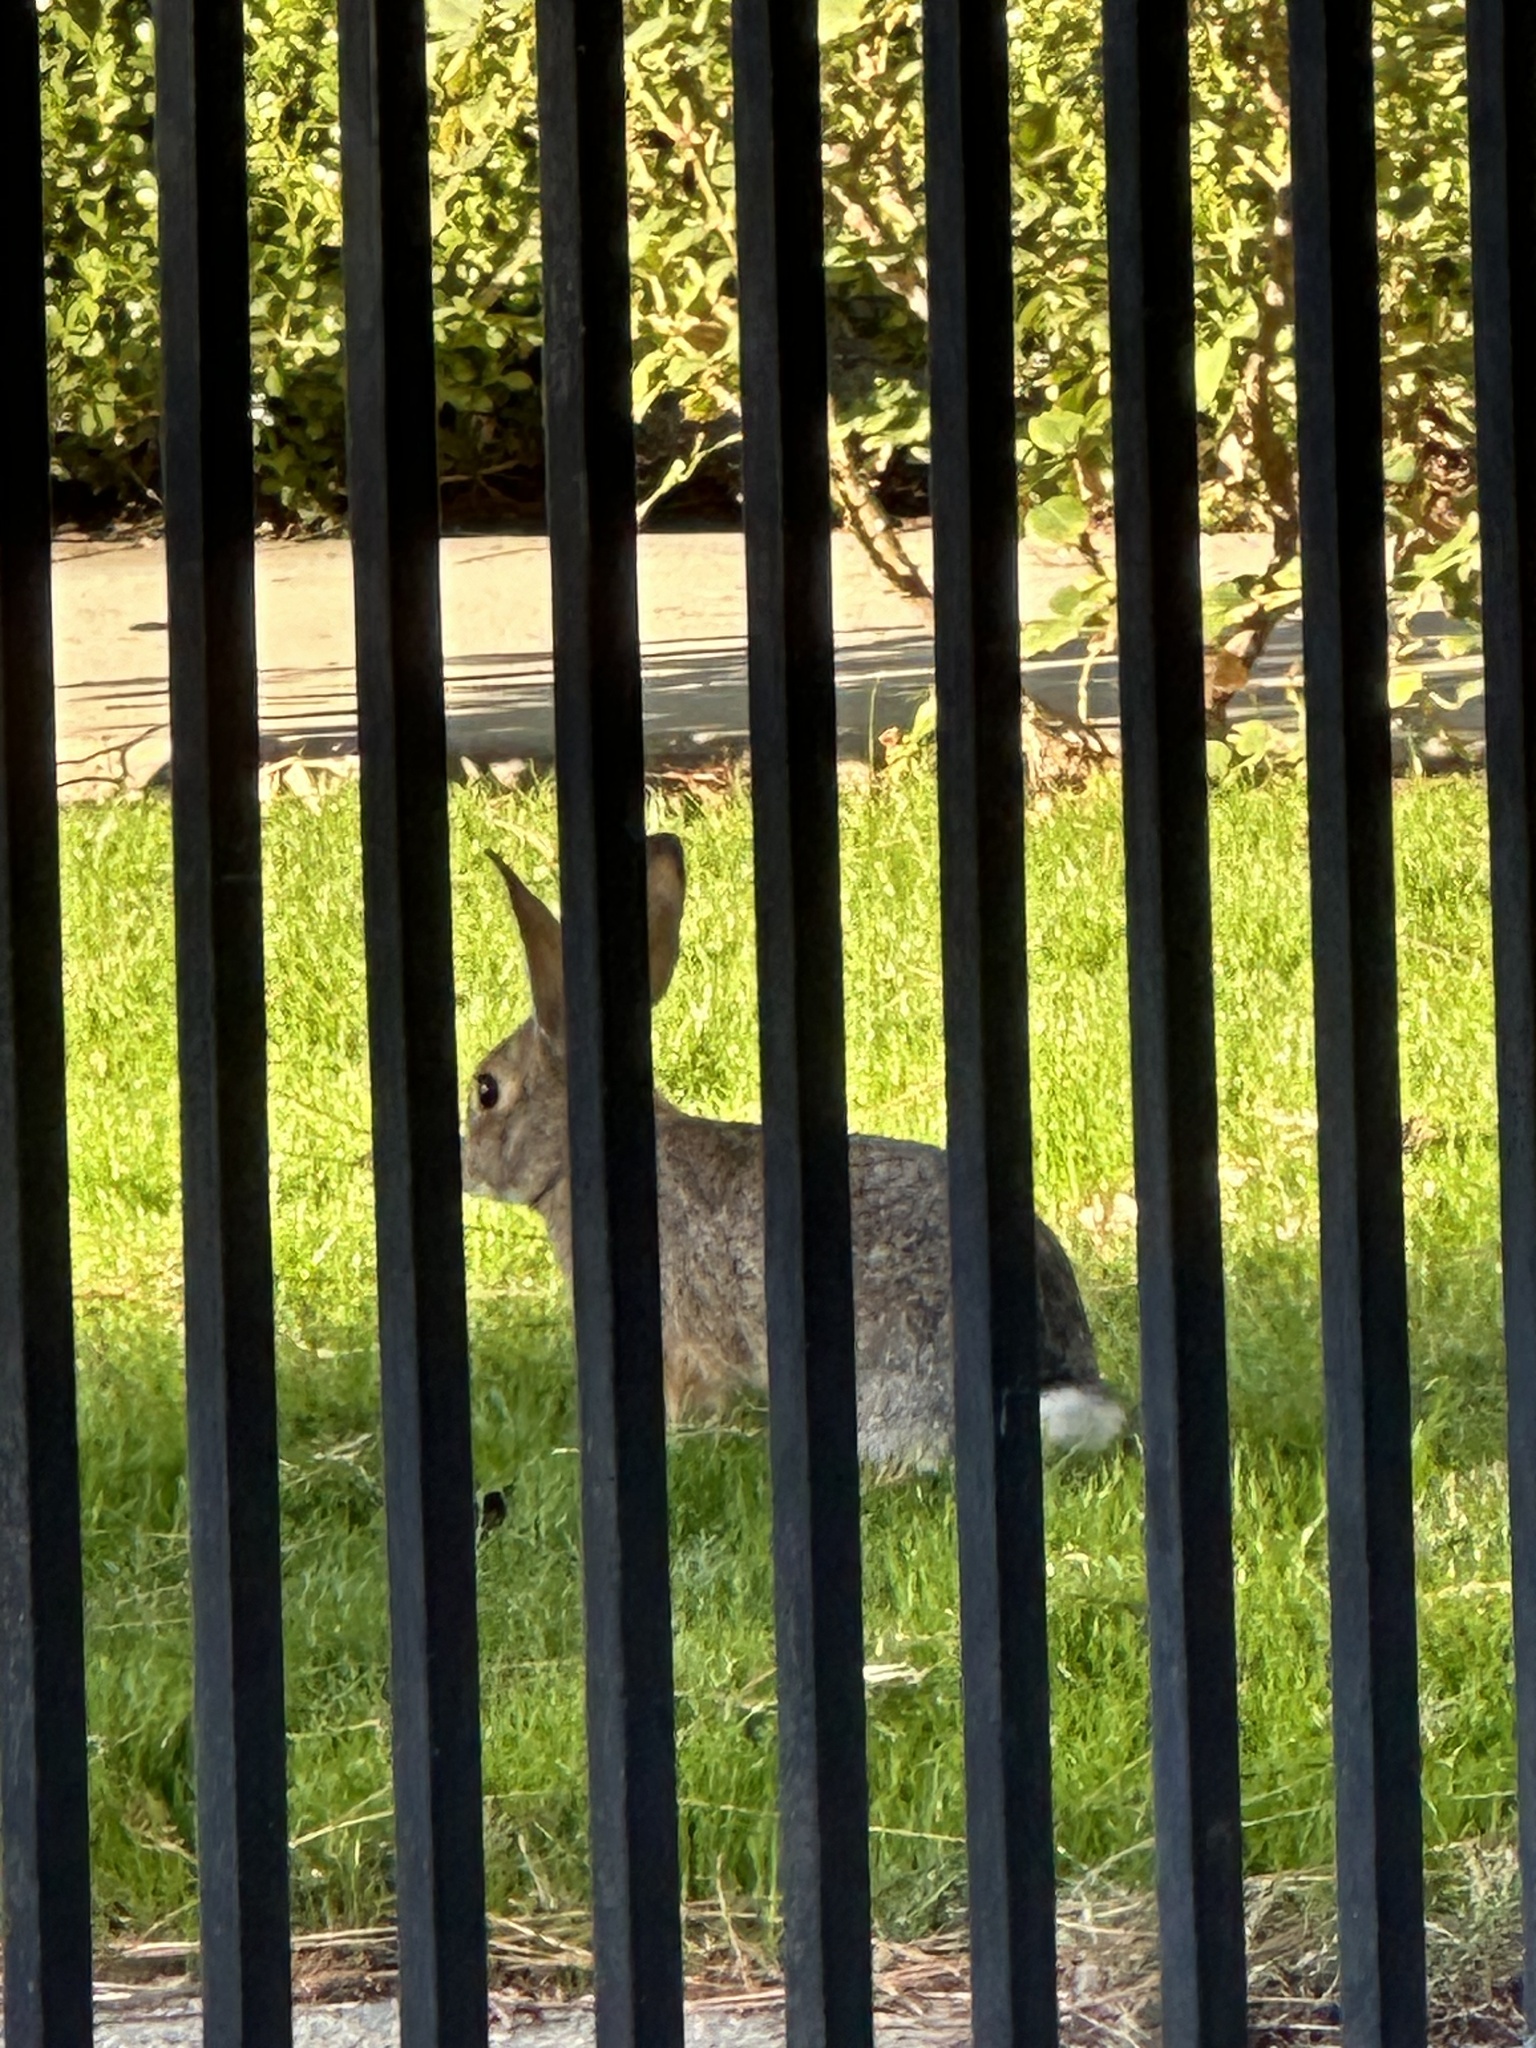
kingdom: Animalia
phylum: Chordata
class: Mammalia
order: Lagomorpha
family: Leporidae
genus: Sylvilagus
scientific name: Sylvilagus audubonii
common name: Desert cottontail
